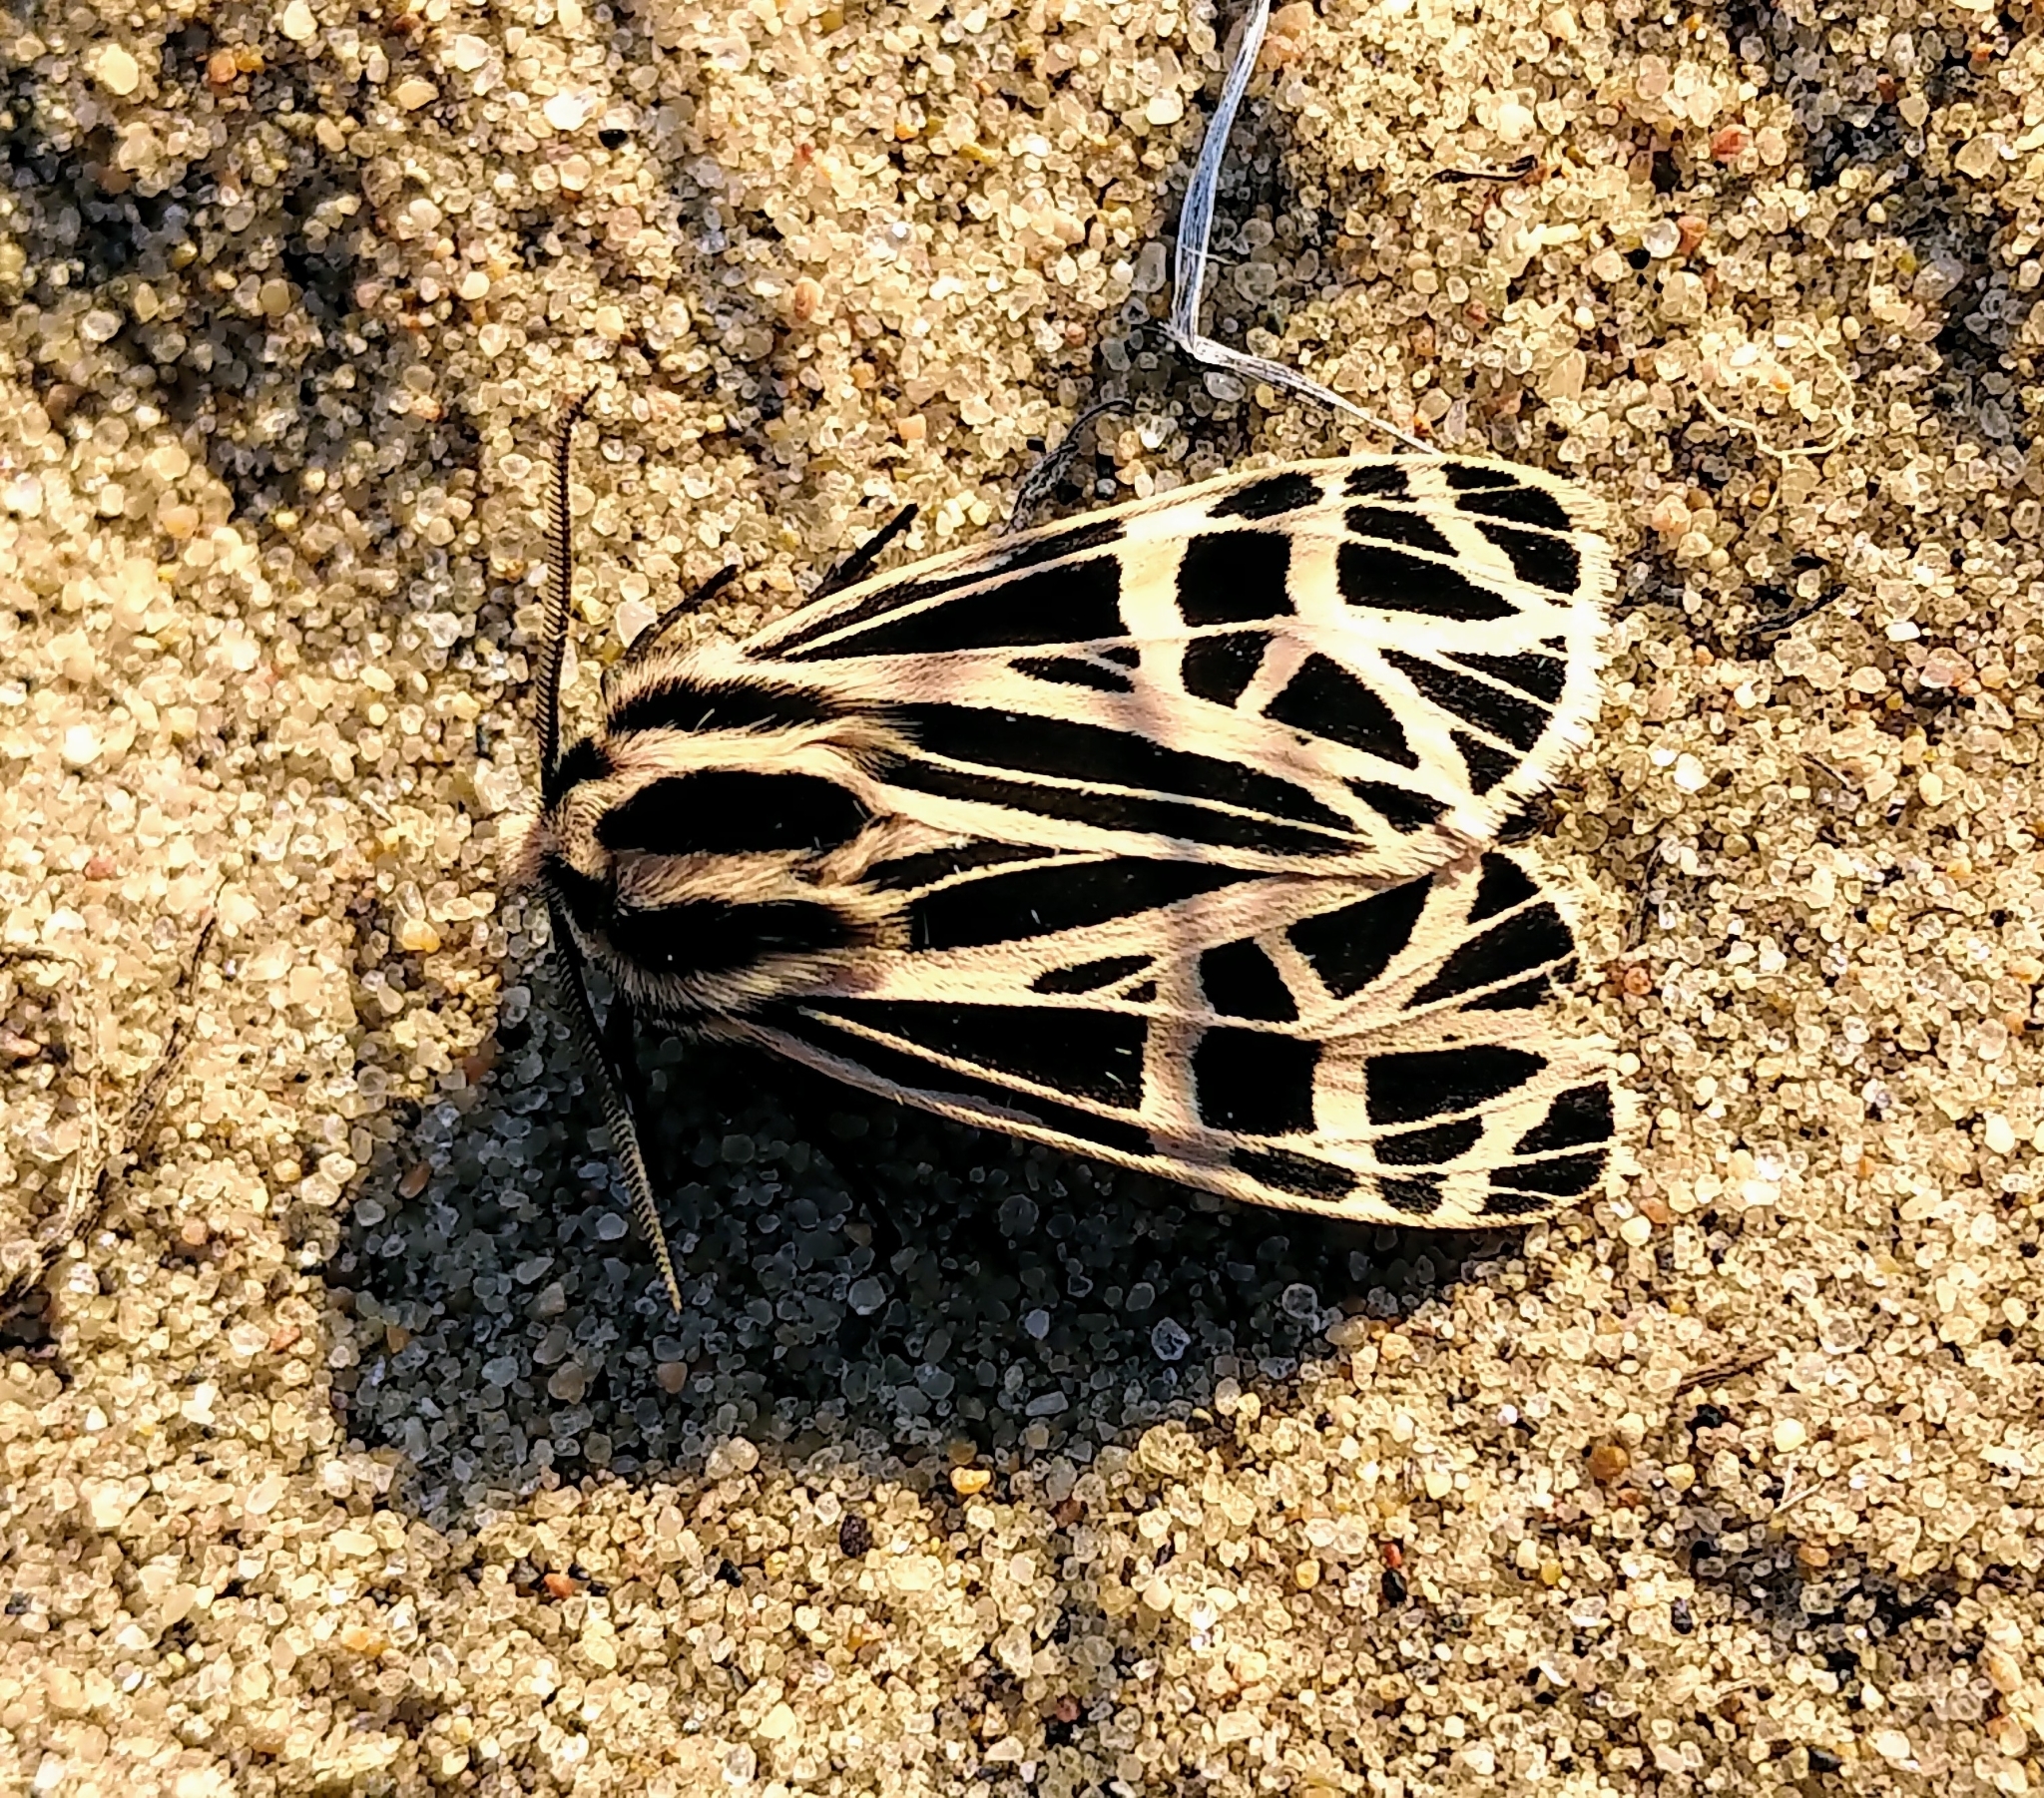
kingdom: Animalia
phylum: Arthropoda
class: Insecta
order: Lepidoptera
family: Erebidae
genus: Grammia
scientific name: Grammia parthenice
